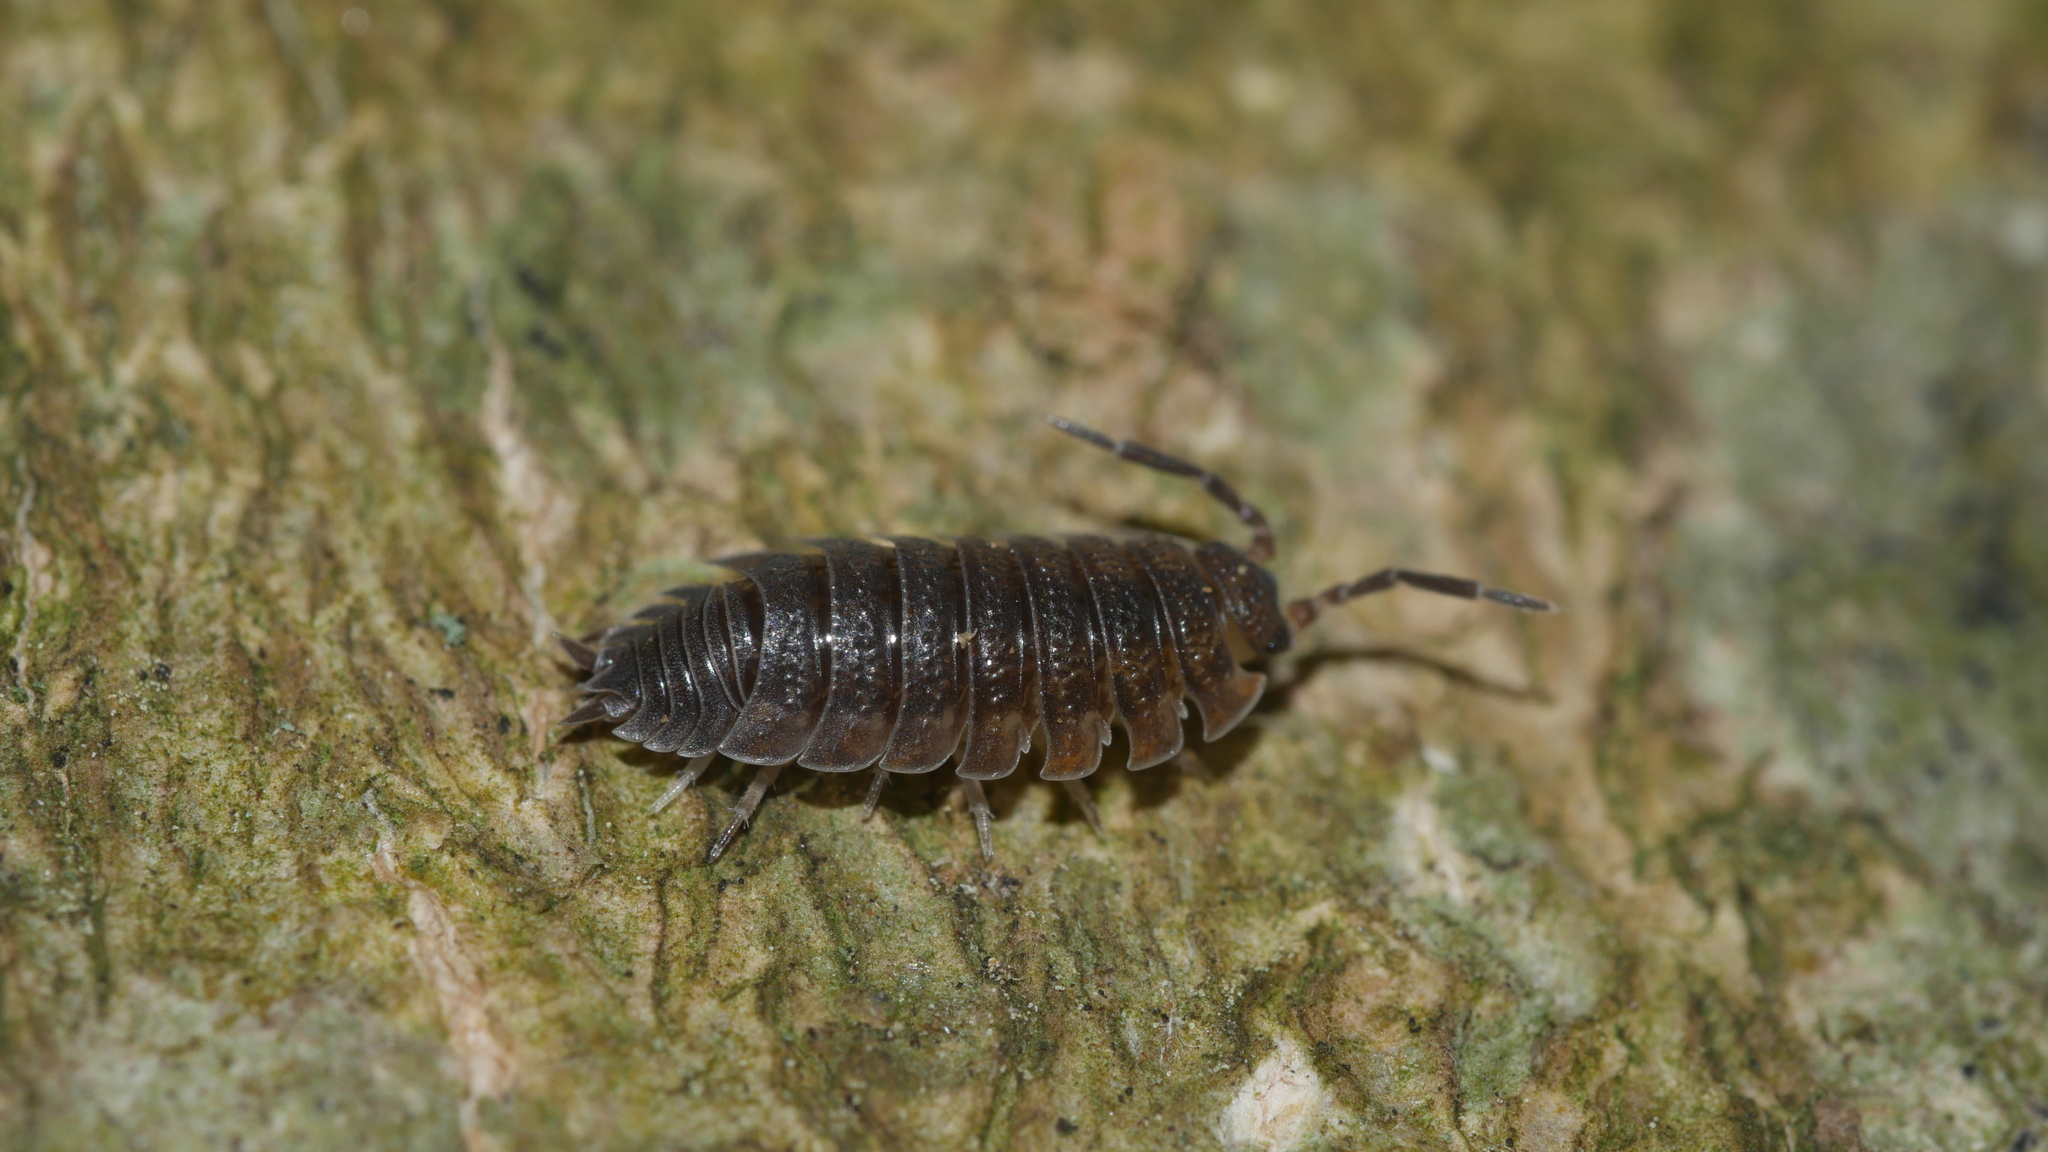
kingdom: Animalia
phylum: Arthropoda
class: Malacostraca
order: Isopoda
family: Porcellionidae
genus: Porcellio
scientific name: Porcellio scaber
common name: Common rough woodlouse
